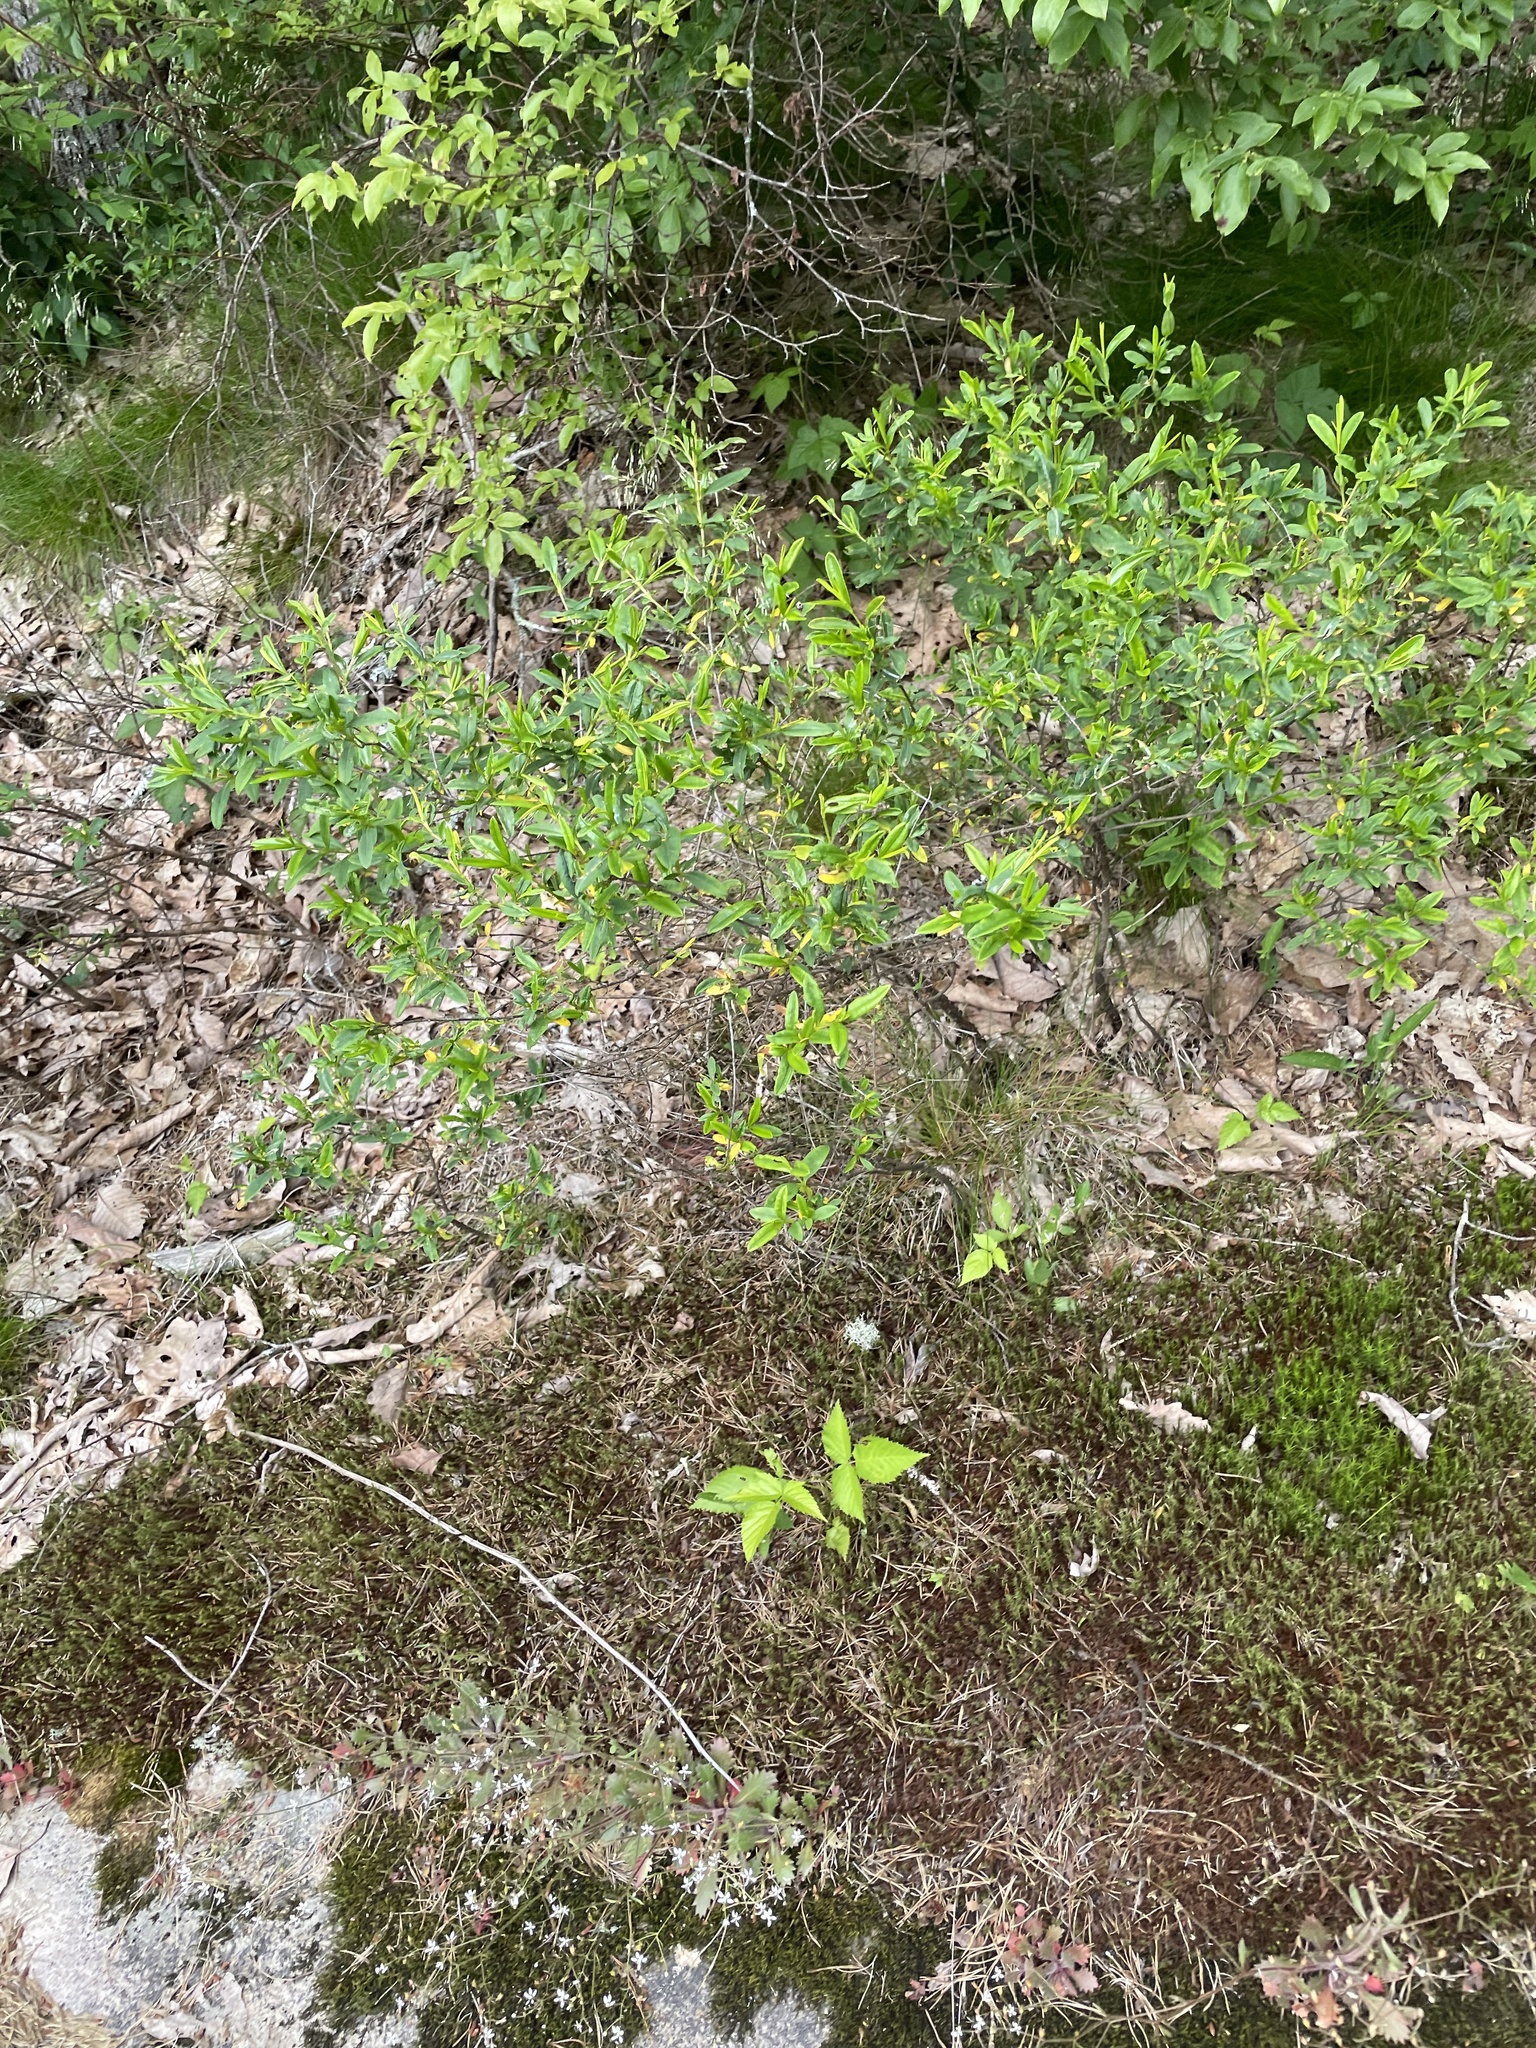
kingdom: Plantae
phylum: Tracheophyta
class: Magnoliopsida
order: Malpighiales
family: Hypericaceae
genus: Hypericum
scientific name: Hypericum prolificum
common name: Shrubby st. john's-wort
